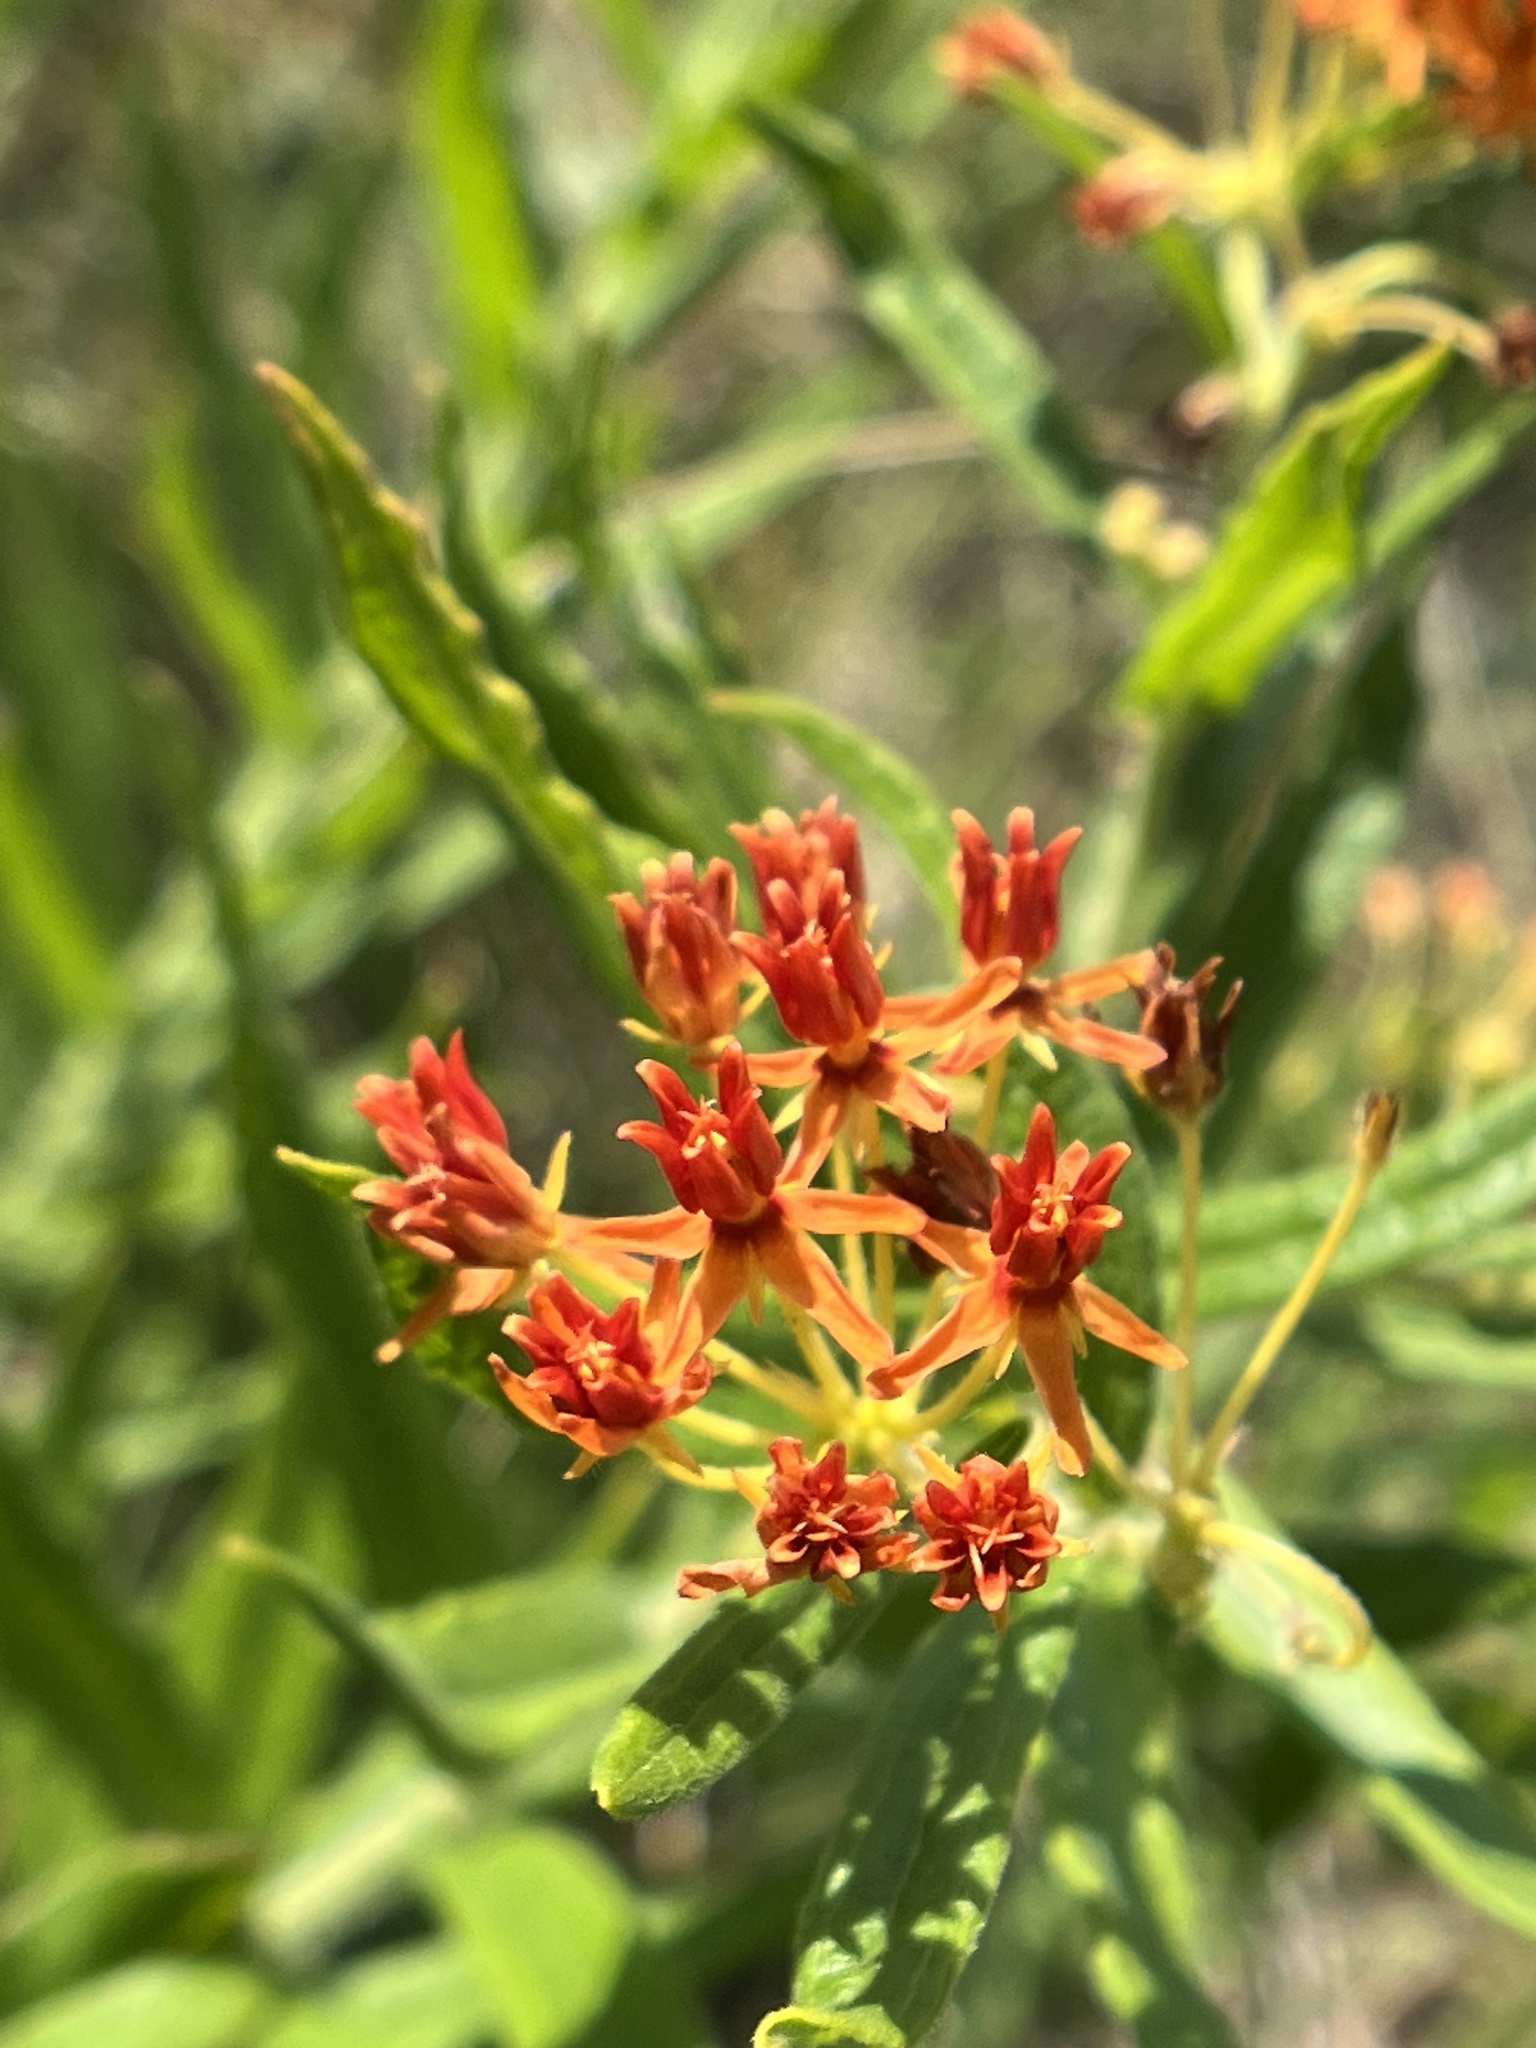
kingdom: Plantae
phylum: Tracheophyta
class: Magnoliopsida
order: Gentianales
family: Apocynaceae
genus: Asclepias
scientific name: Asclepias tuberosa
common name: Butterfly milkweed
